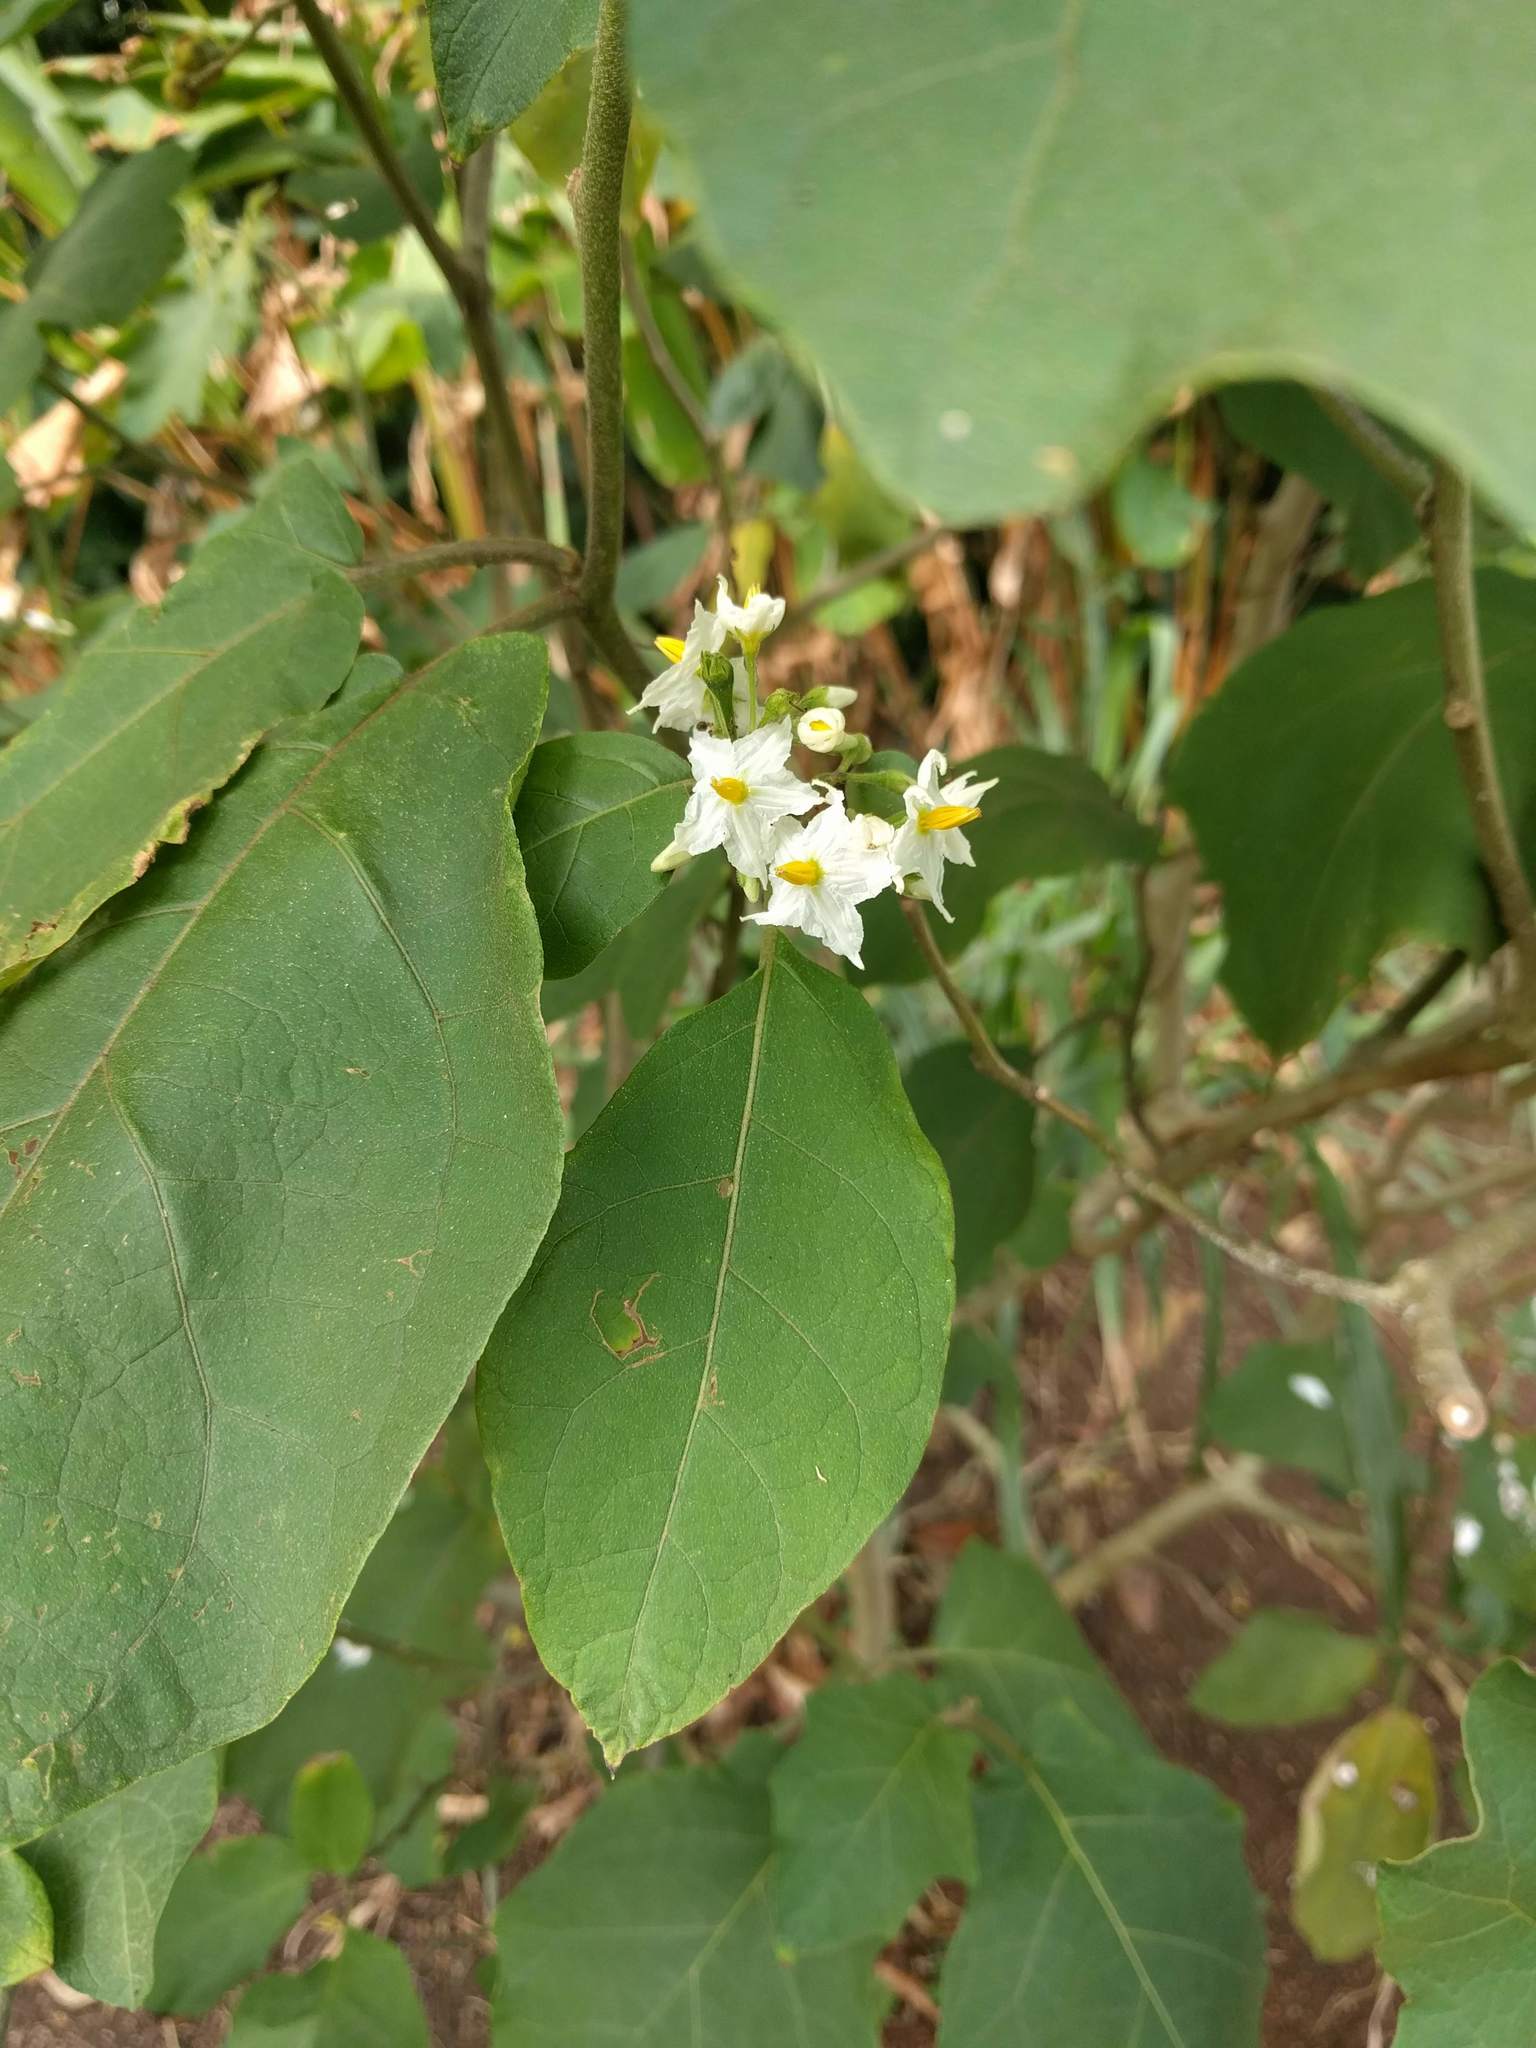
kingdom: Plantae
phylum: Tracheophyta
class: Magnoliopsida
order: Solanales
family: Solanaceae
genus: Solanum
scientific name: Solanum torvum
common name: Turkey berry
